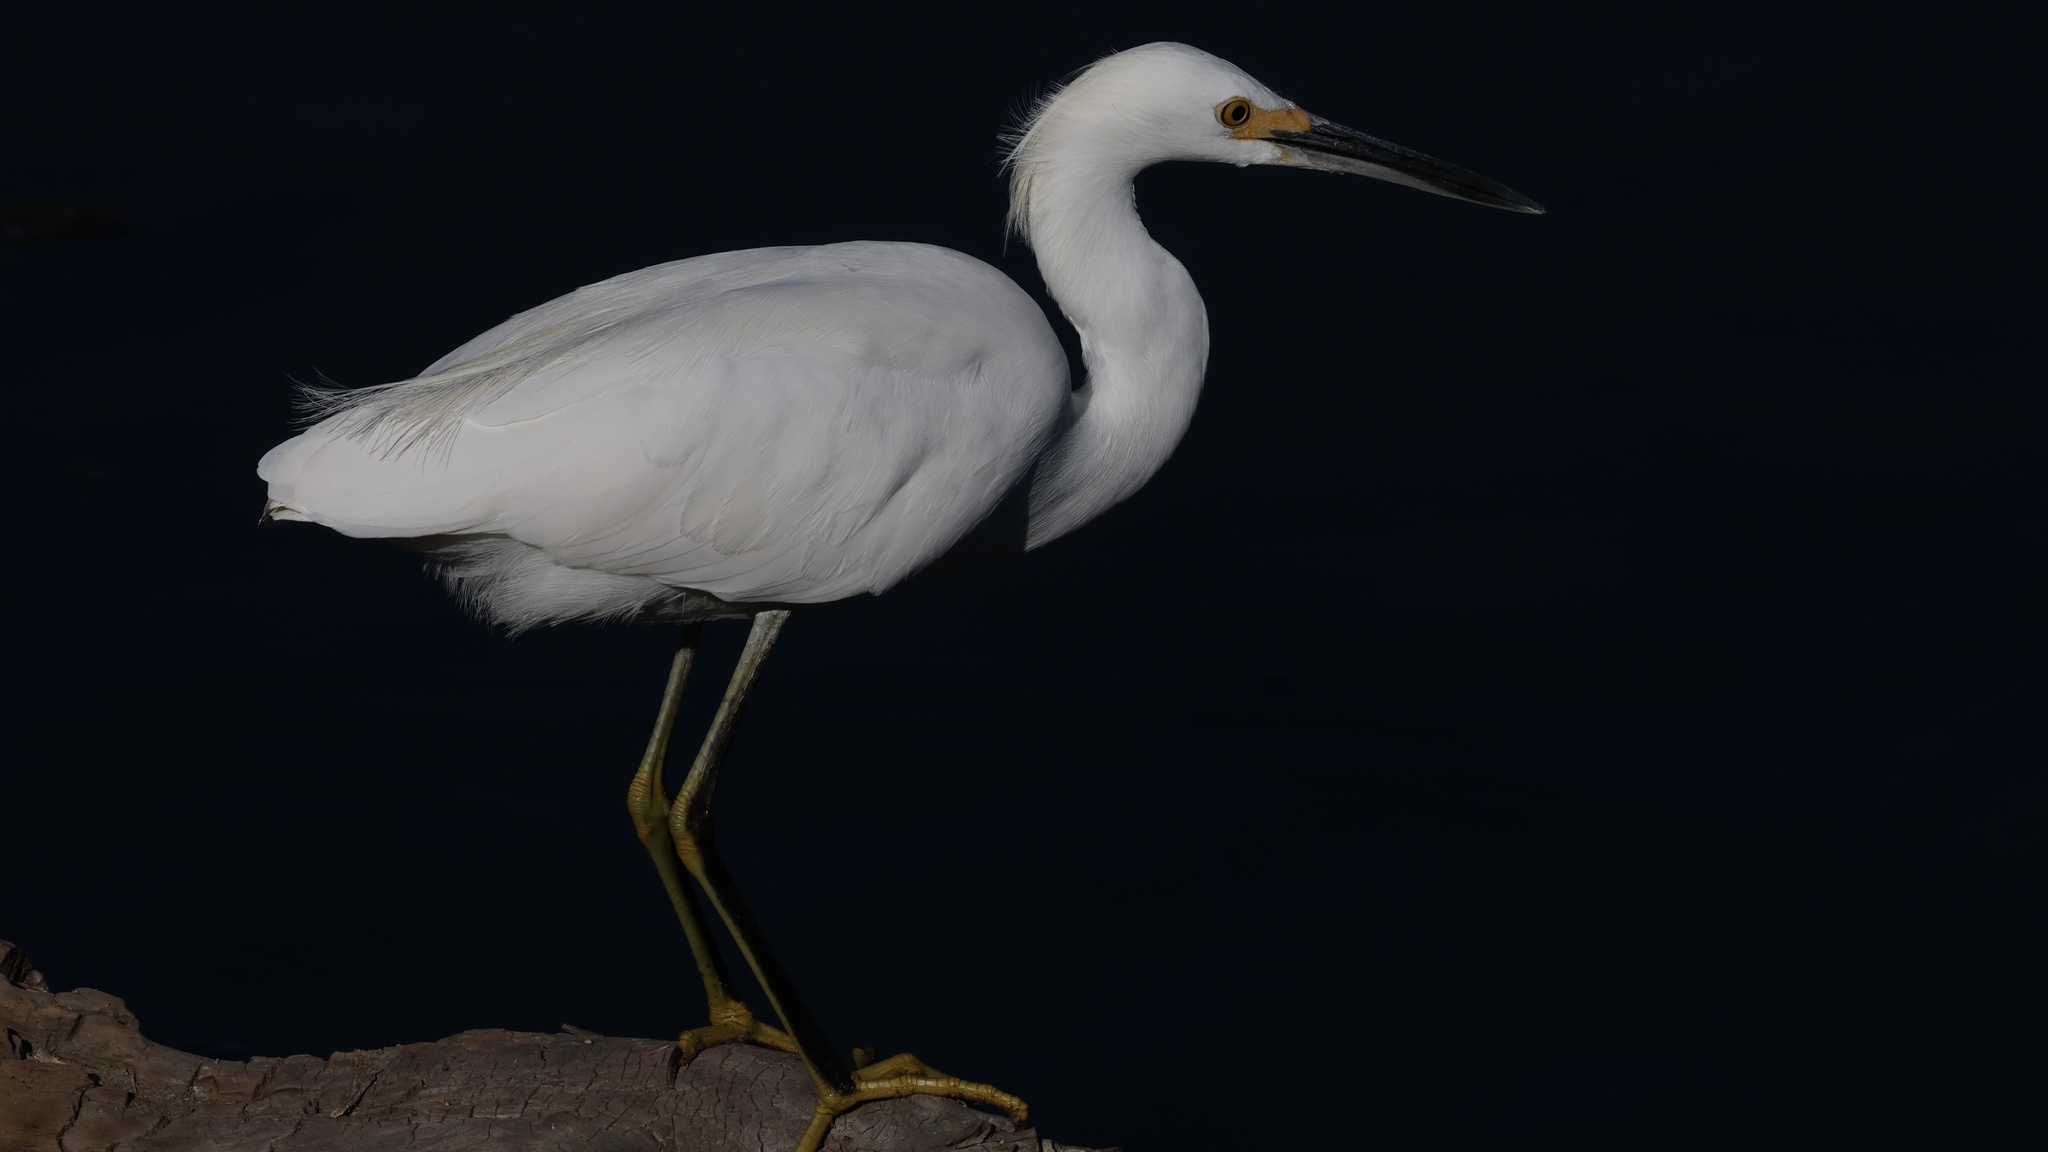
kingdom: Animalia
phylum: Chordata
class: Aves
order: Pelecaniformes
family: Ardeidae
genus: Egretta
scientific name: Egretta thula
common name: Snowy egret
